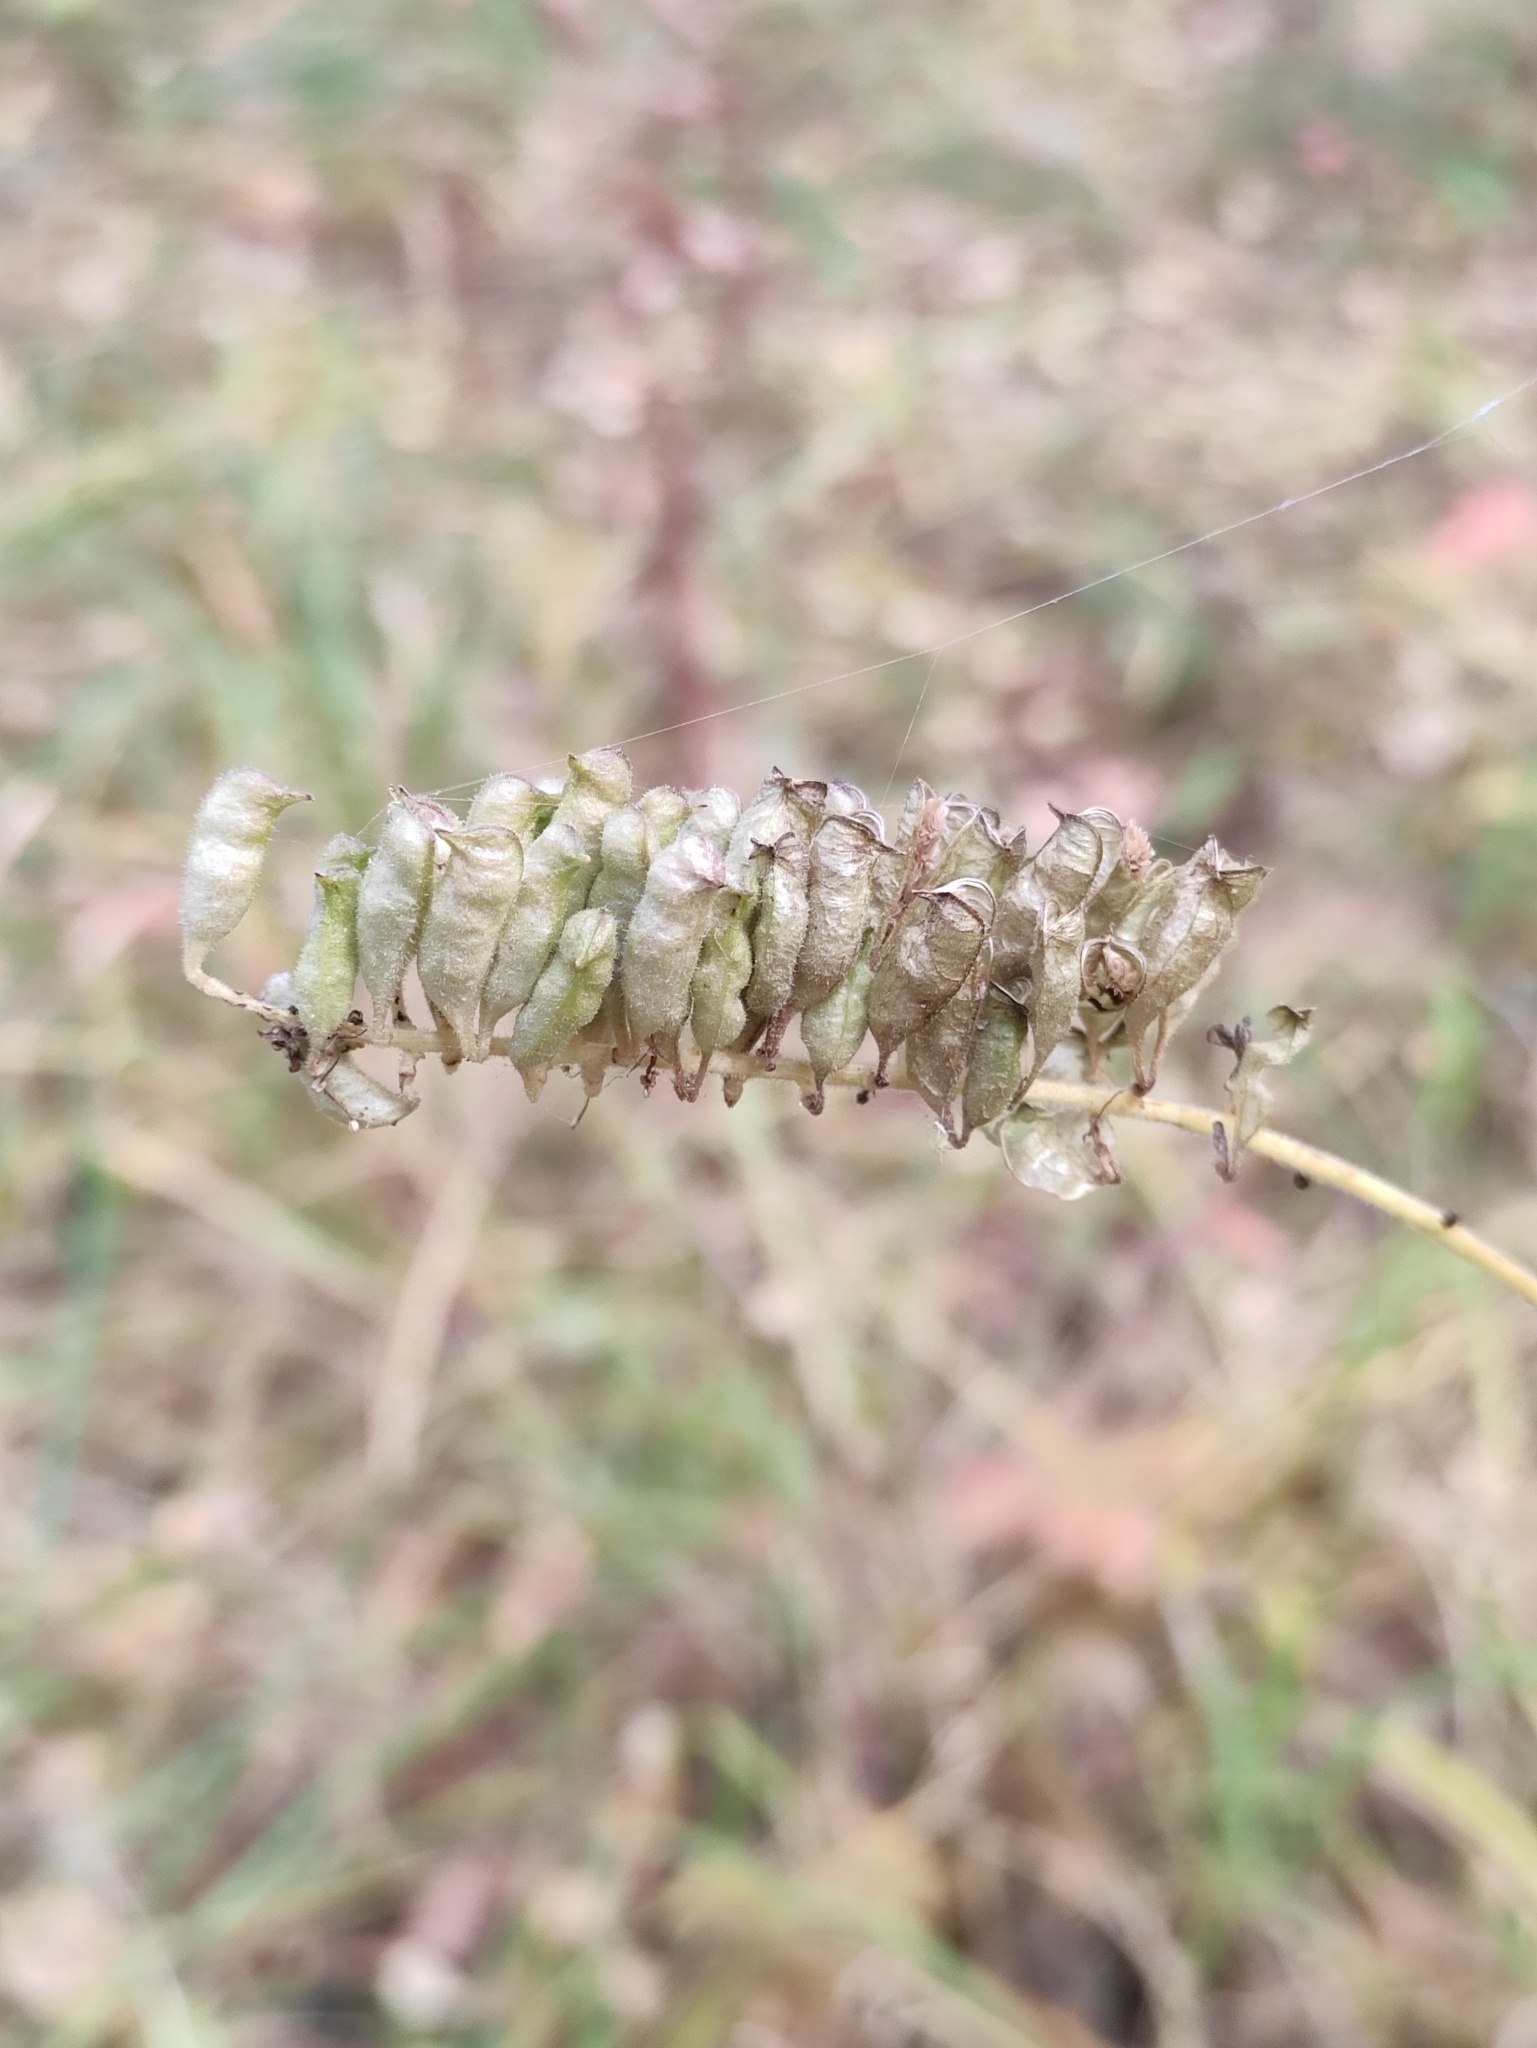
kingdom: Plantae
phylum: Tracheophyta
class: Magnoliopsida
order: Ranunculales
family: Ranunculaceae
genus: Actaea
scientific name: Actaea cimicifuga
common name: Chinese cimicifuga
